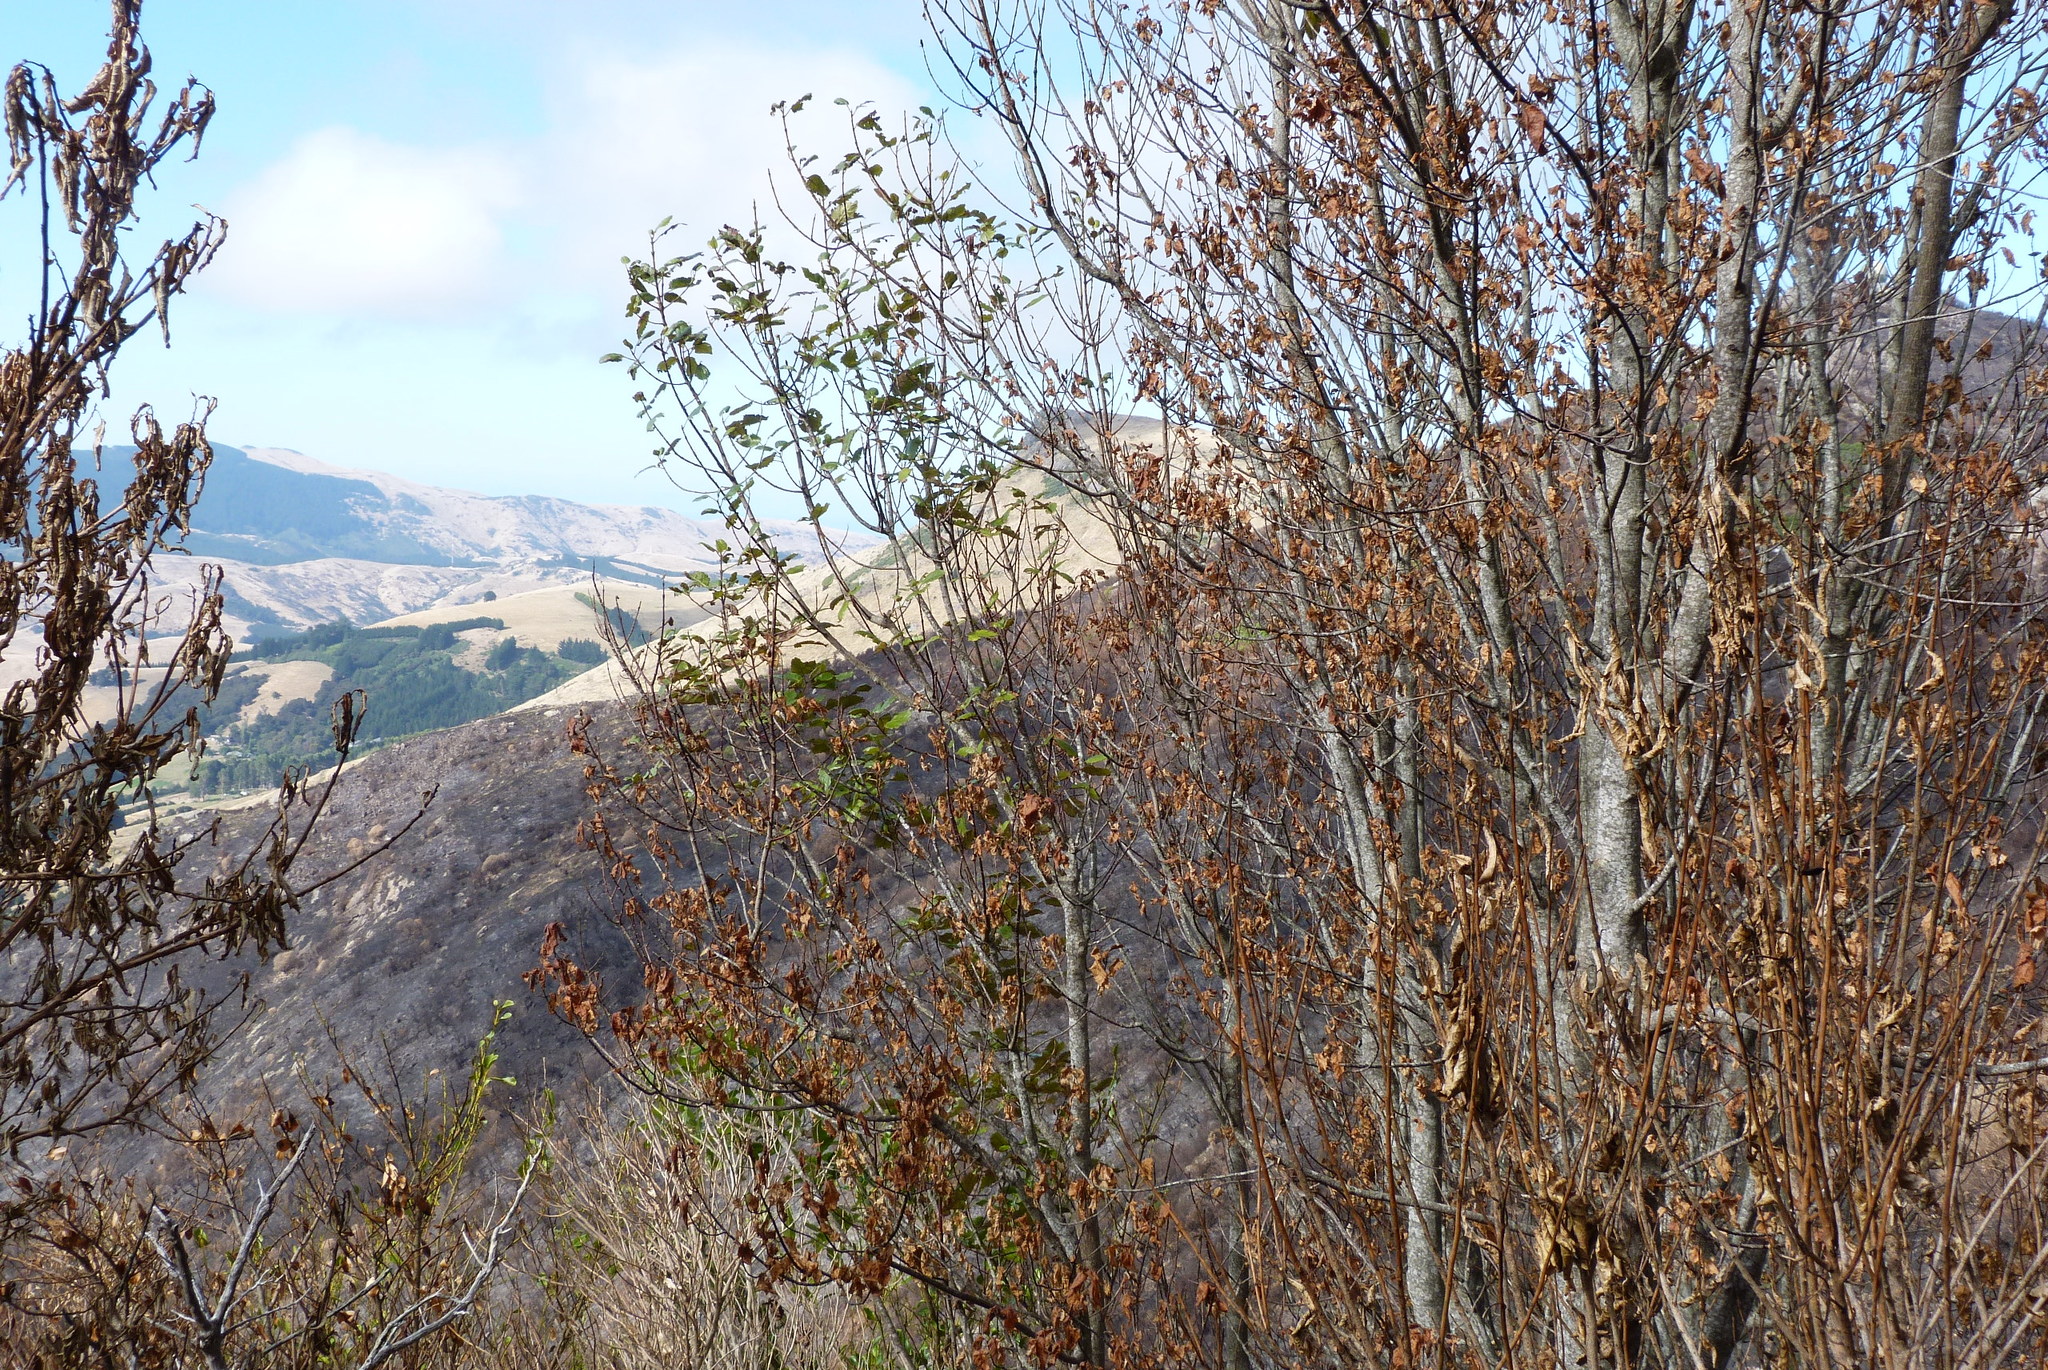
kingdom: Plantae
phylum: Tracheophyta
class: Magnoliopsida
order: Oxalidales
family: Elaeocarpaceae
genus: Aristotelia
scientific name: Aristotelia serrata
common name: New zealand wineberry
